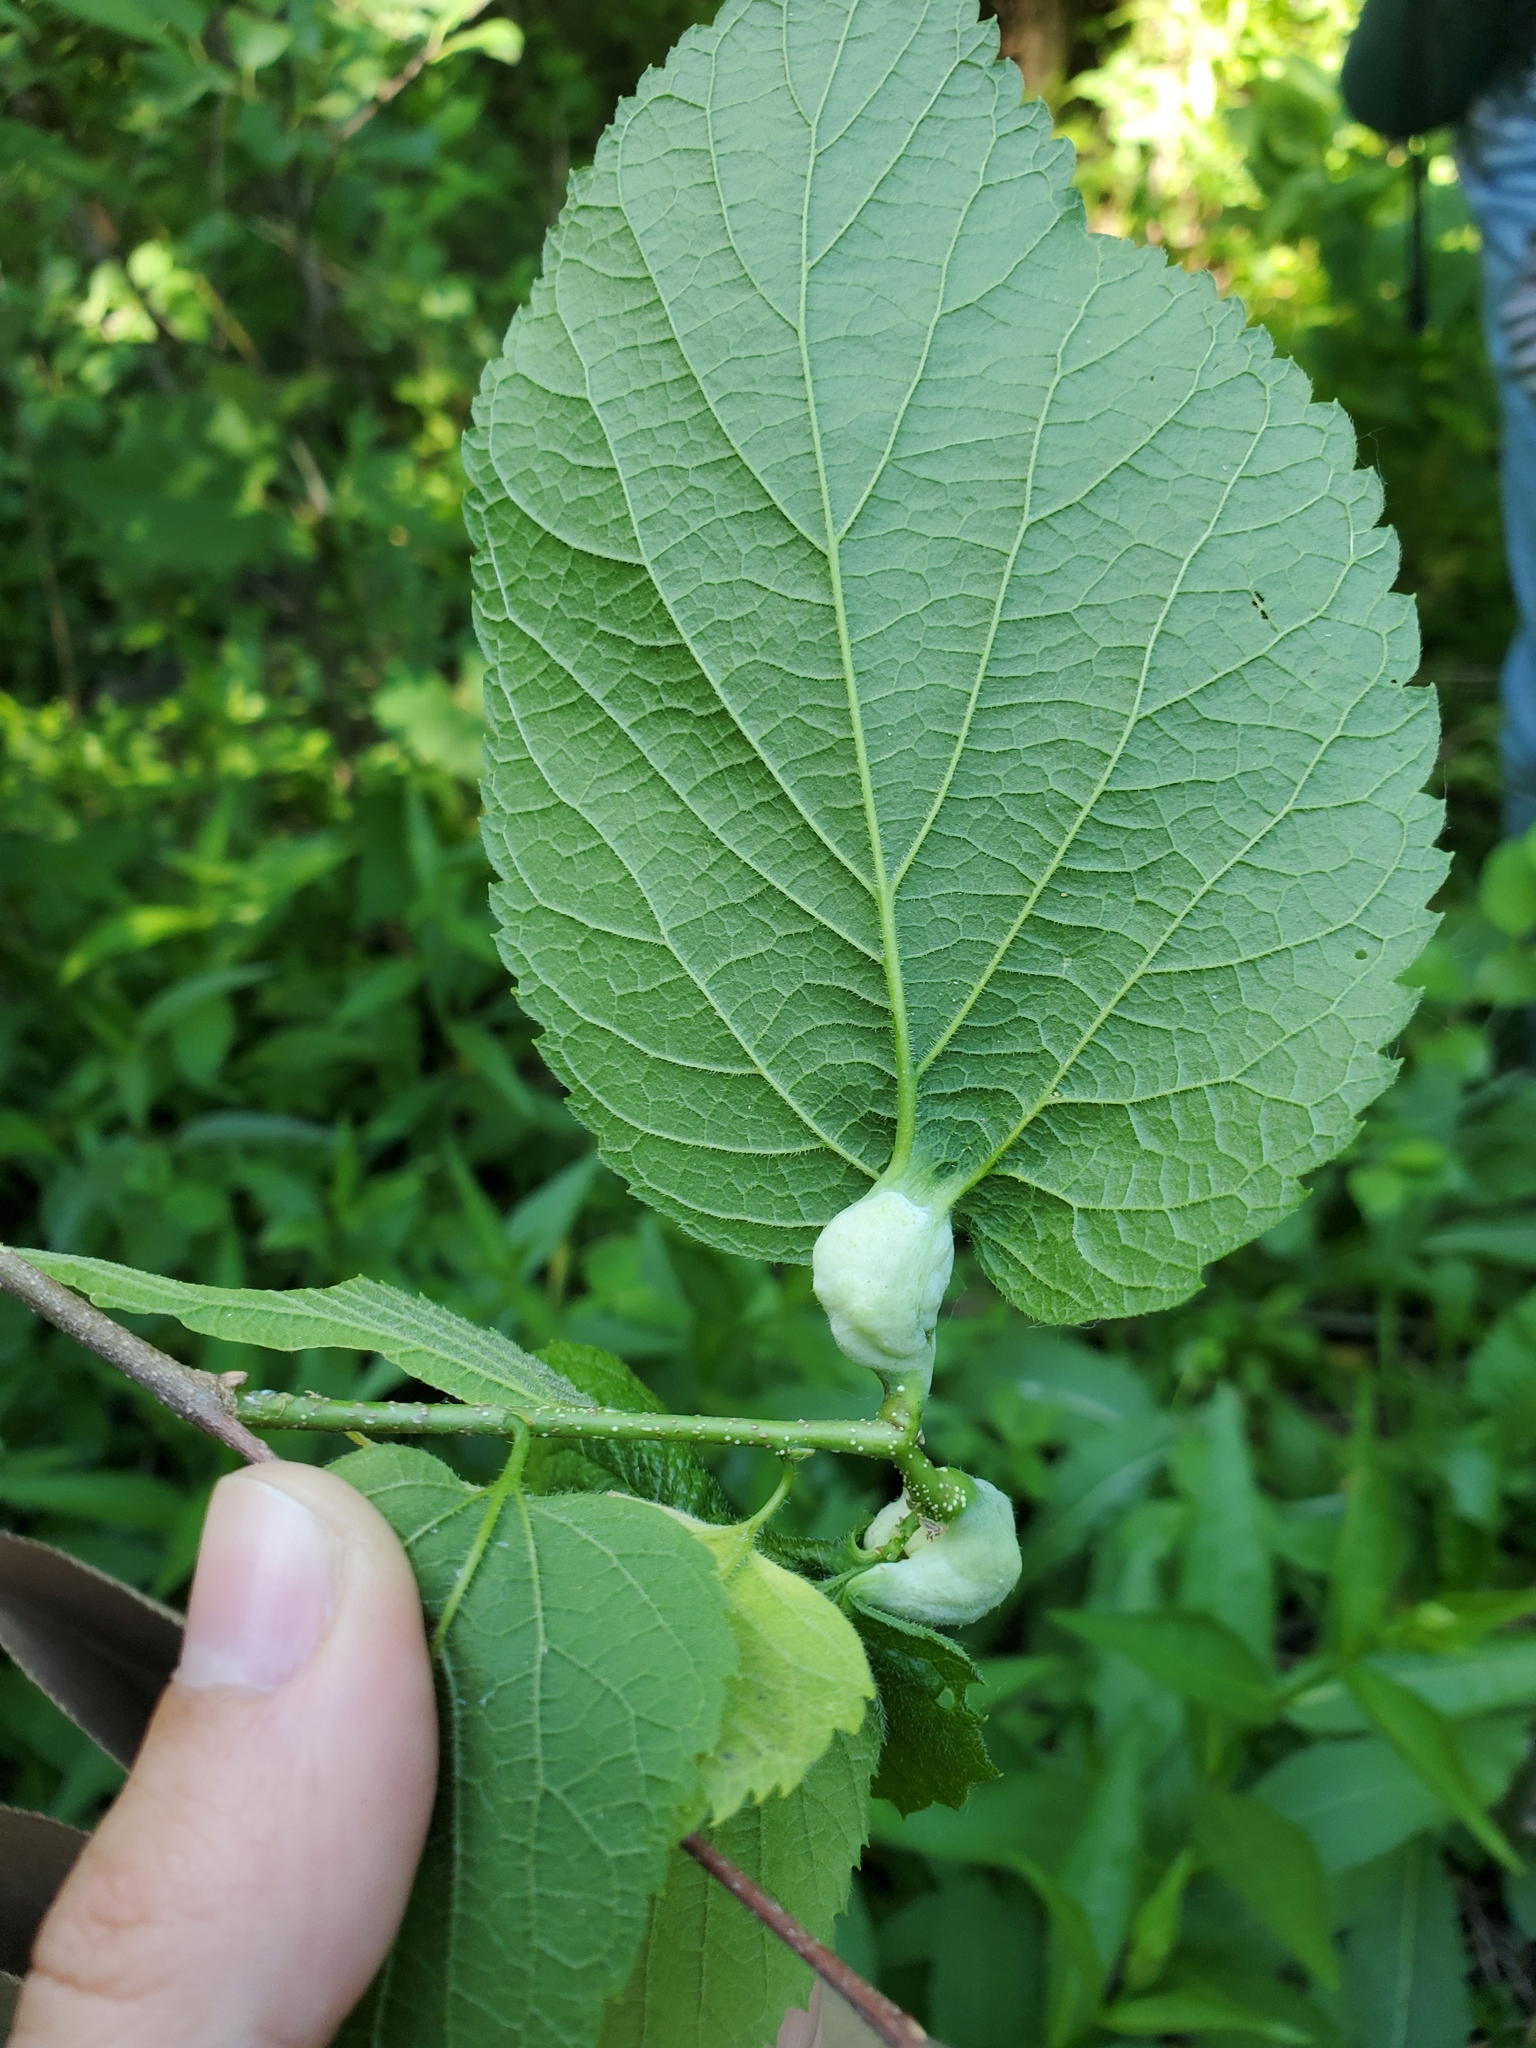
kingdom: Animalia
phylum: Arthropoda
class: Insecta
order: Hemiptera
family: Aphalaridae
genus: Pachypsylla
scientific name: Pachypsylla venusta
